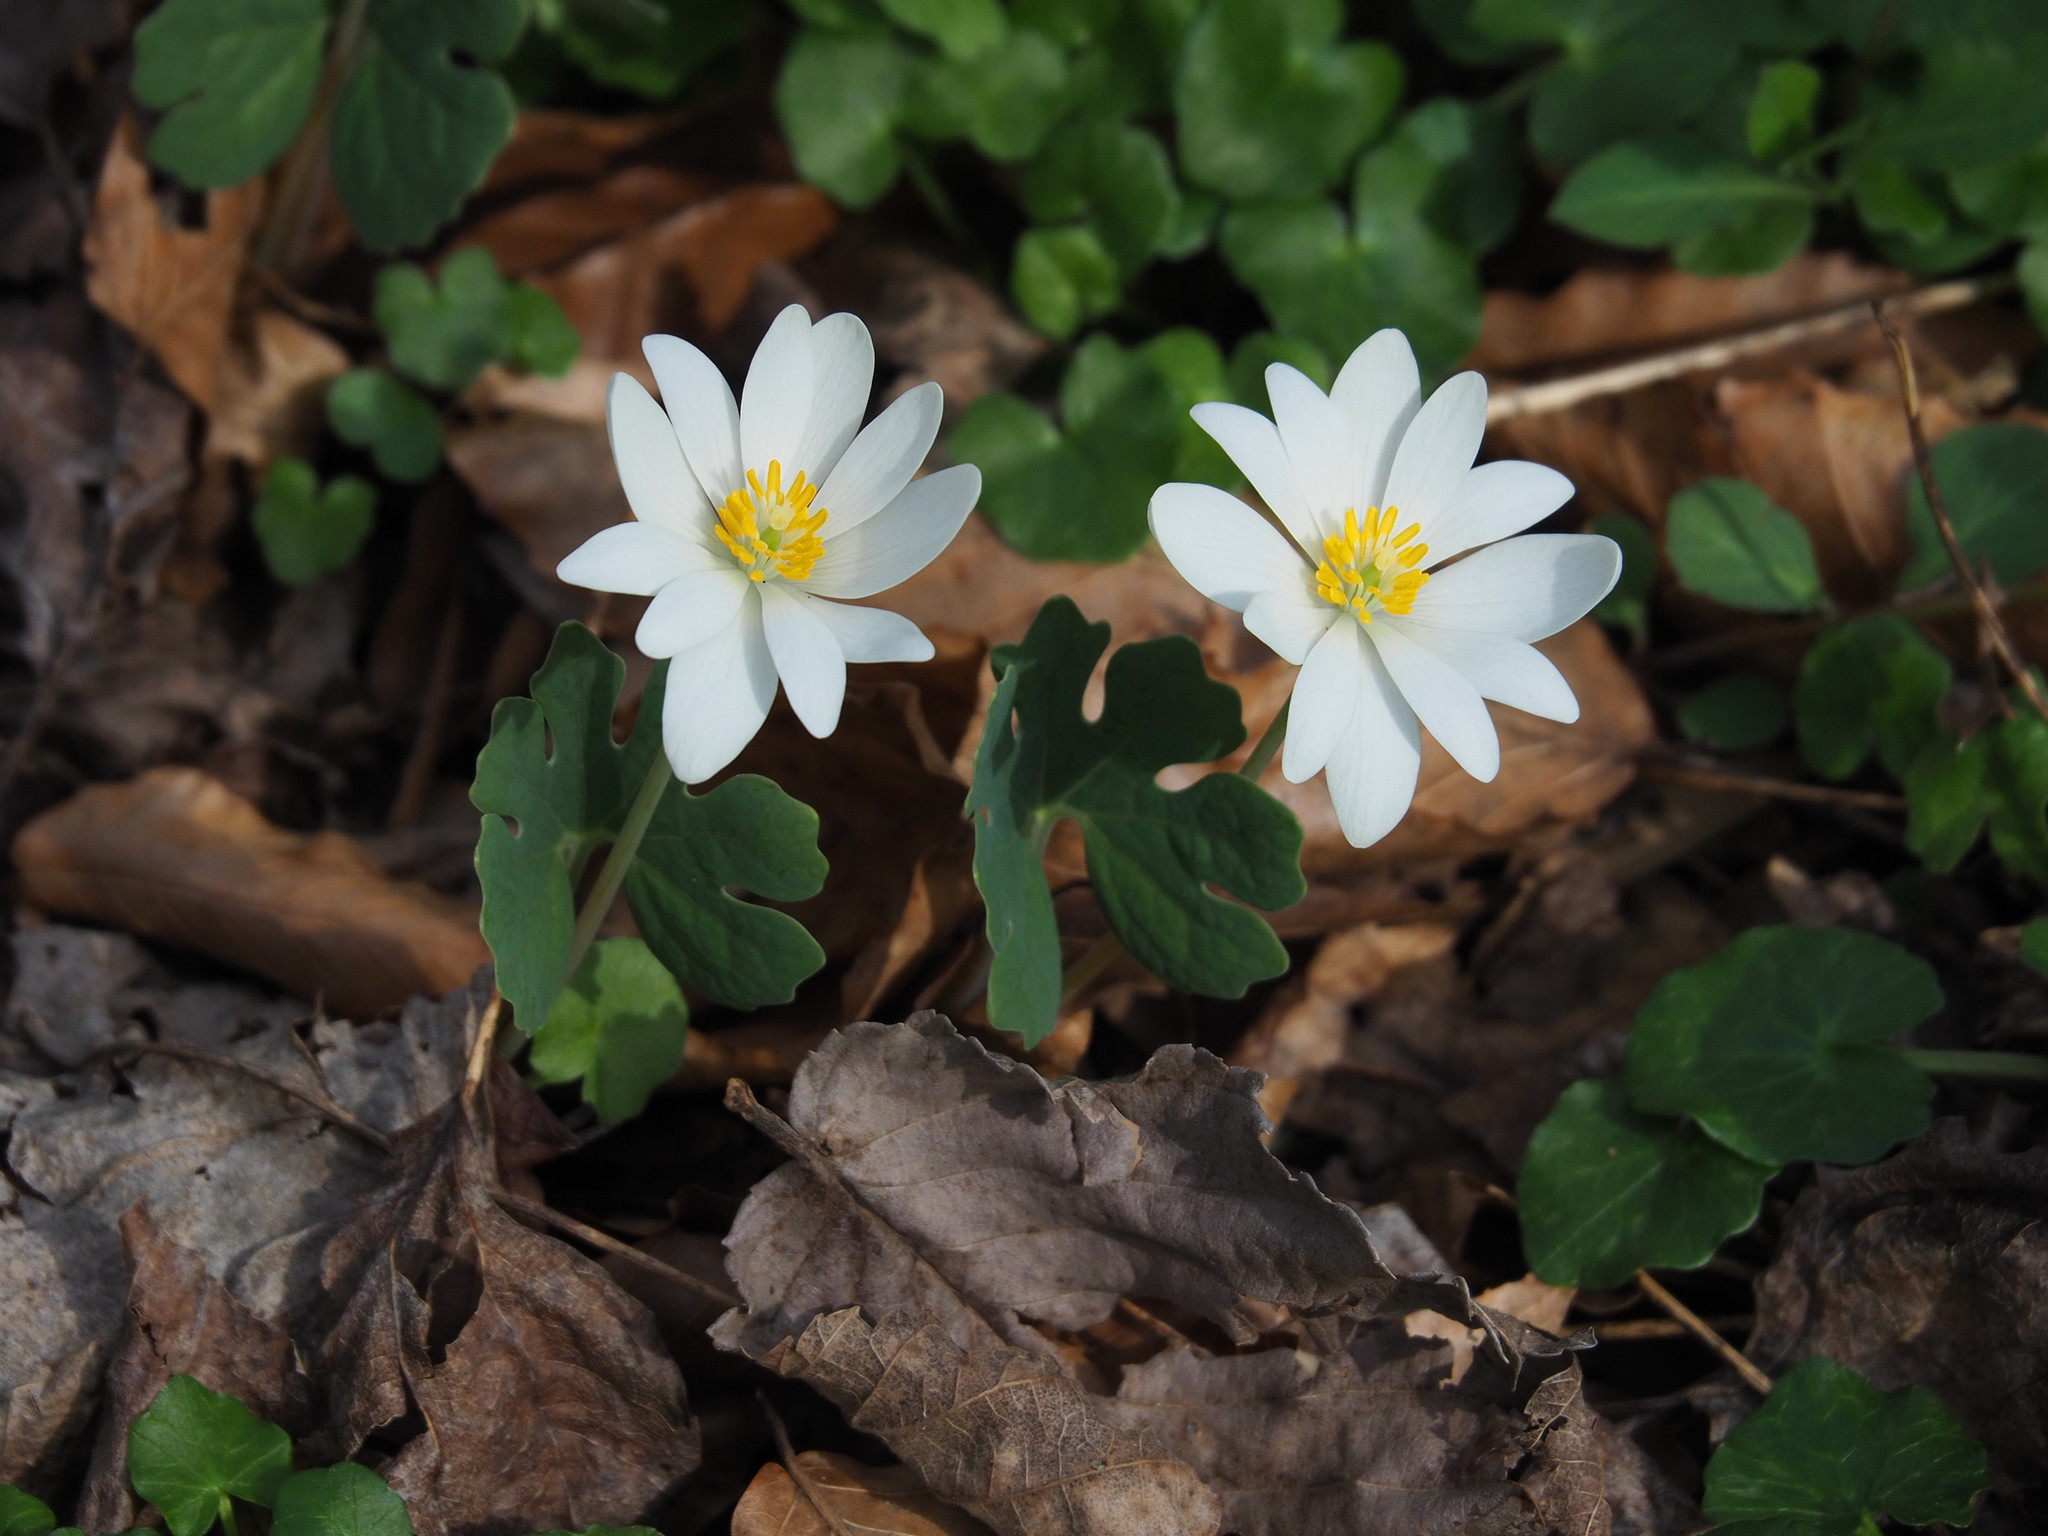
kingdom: Plantae
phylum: Tracheophyta
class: Magnoliopsida
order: Ranunculales
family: Papaveraceae
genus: Sanguinaria
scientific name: Sanguinaria canadensis
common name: Bloodroot
